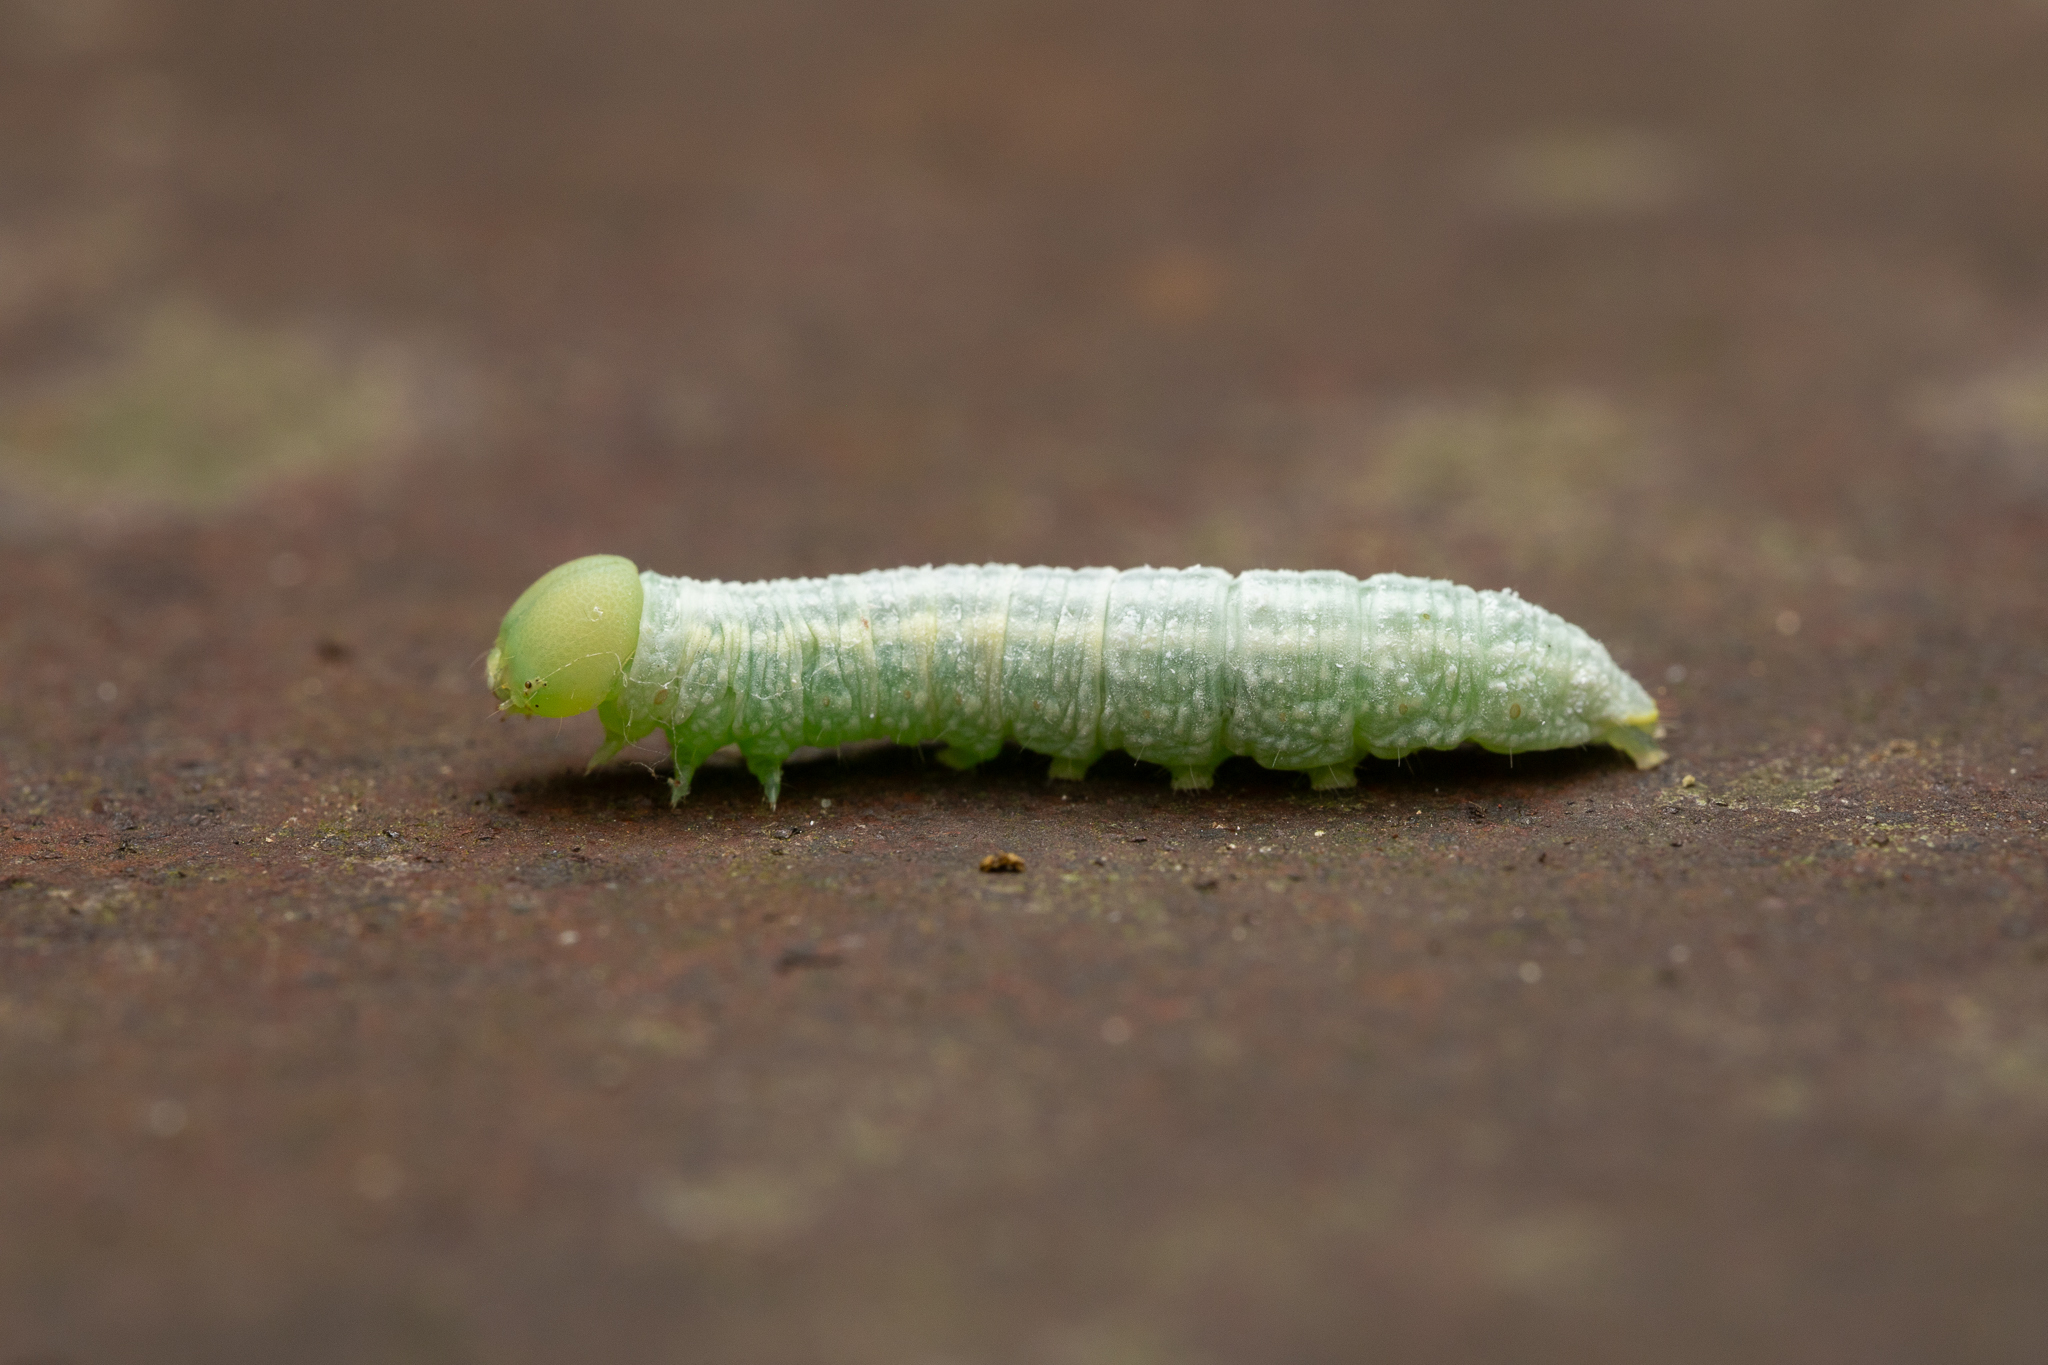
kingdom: Animalia
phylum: Arthropoda
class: Insecta
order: Lepidoptera
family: Notodontidae
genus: Nadata
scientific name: Nadata gibbosa
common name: White-dotted prominent
